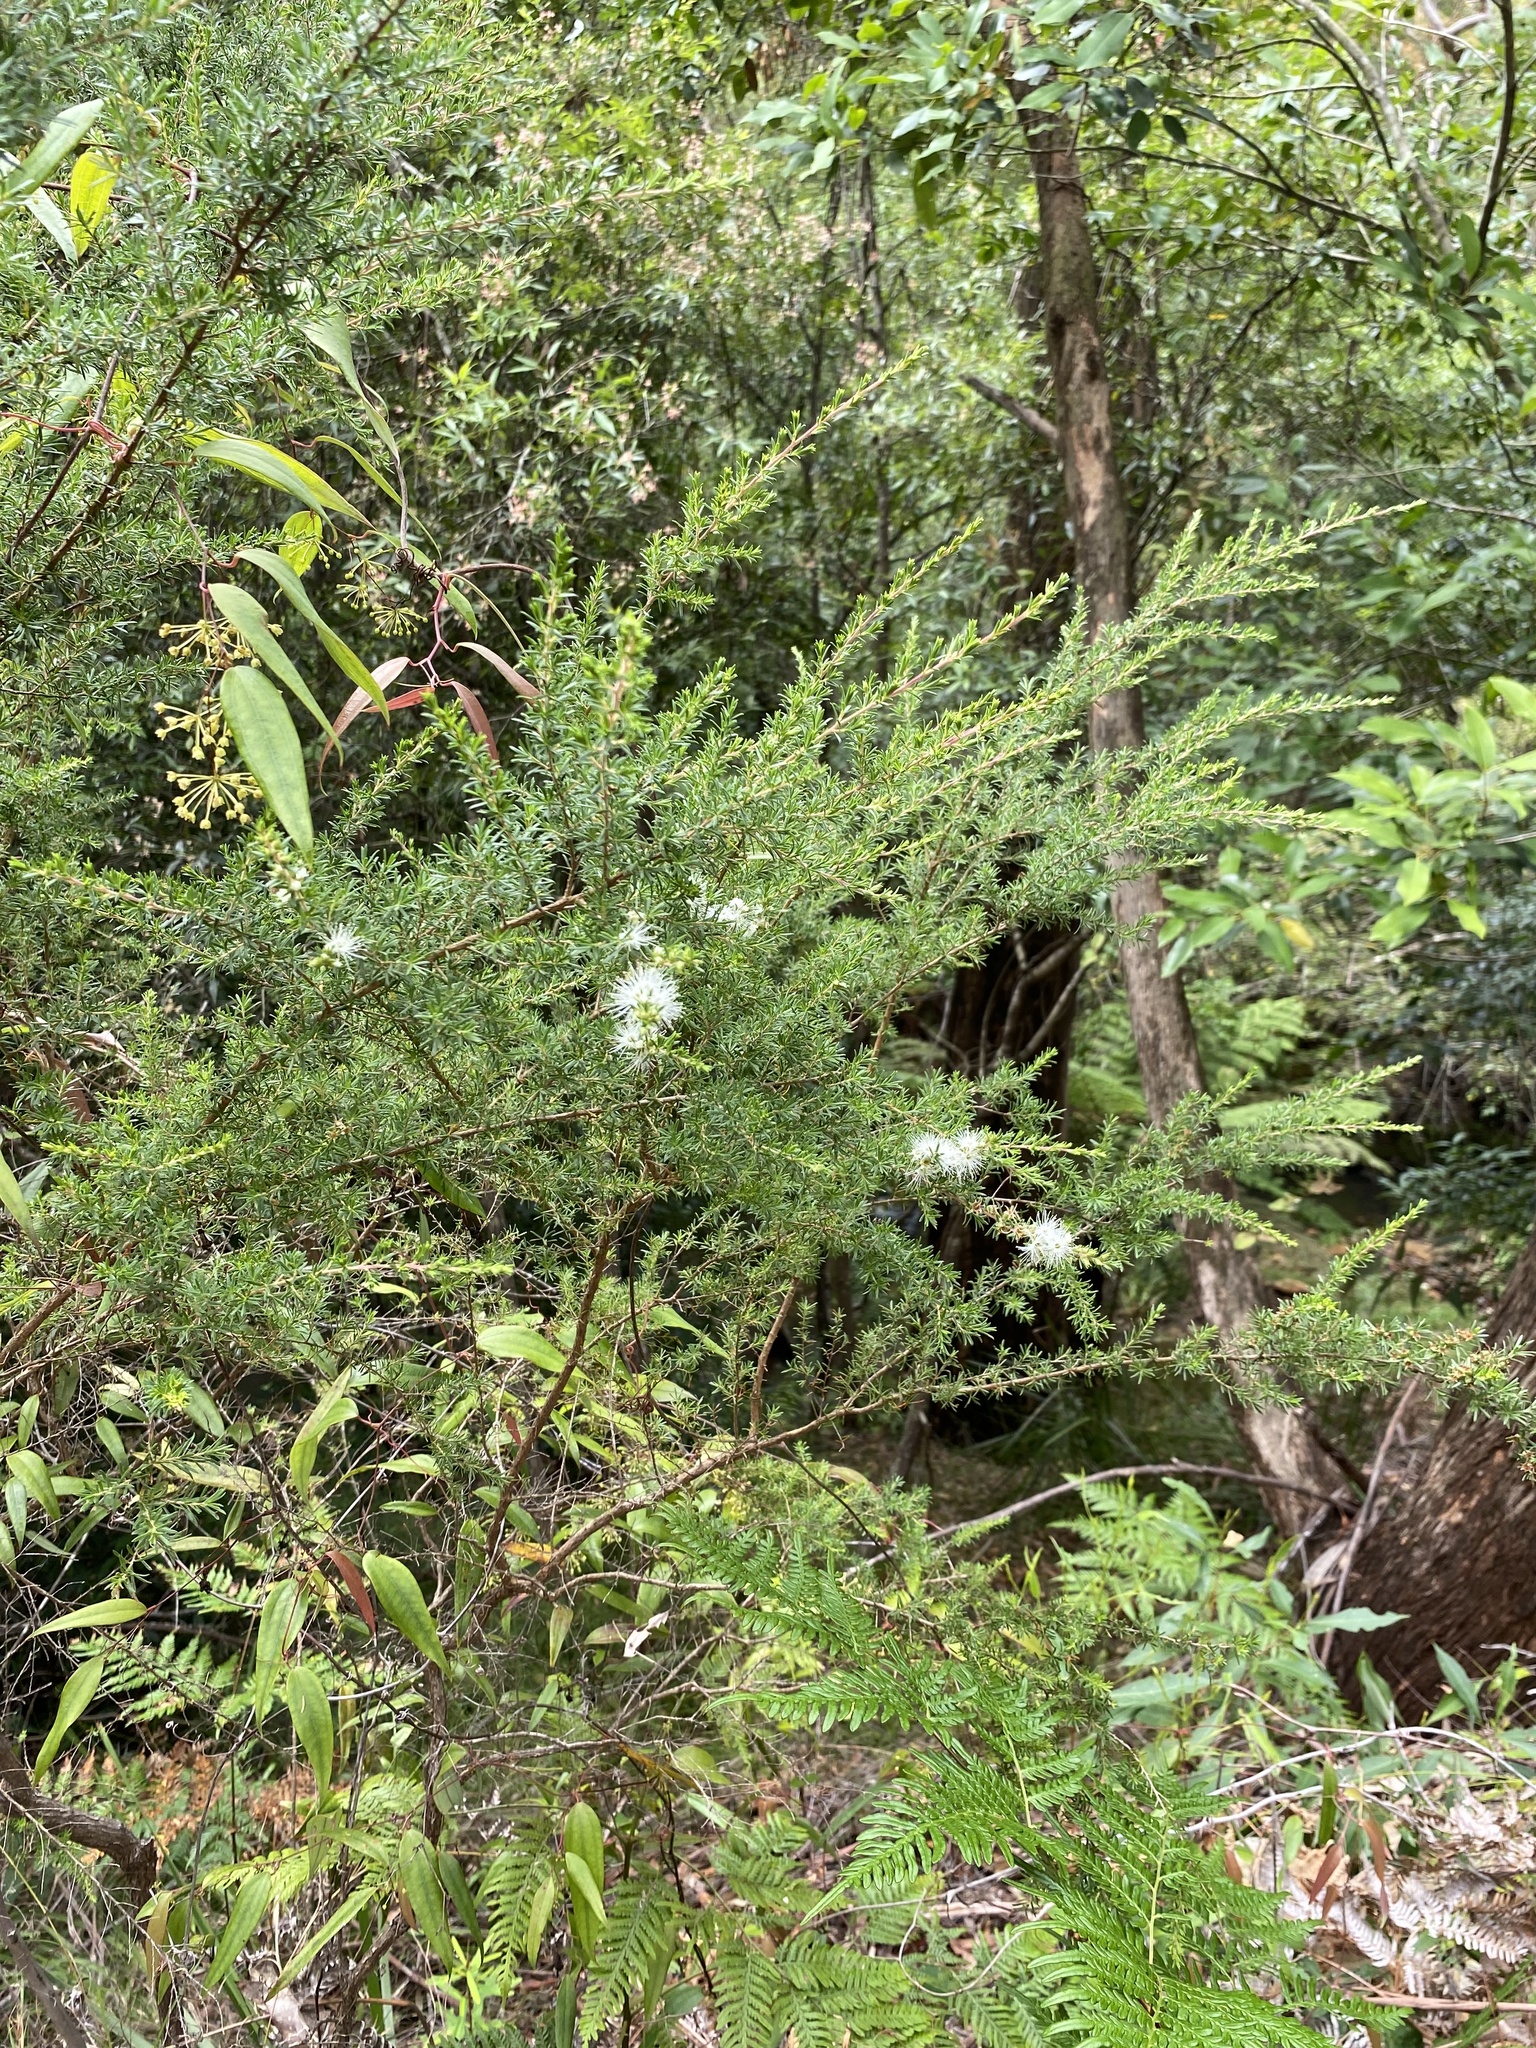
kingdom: Plantae
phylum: Tracheophyta
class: Magnoliopsida
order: Myrtales
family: Myrtaceae
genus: Kunzea
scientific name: Kunzea ambigua
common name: Tickbush
